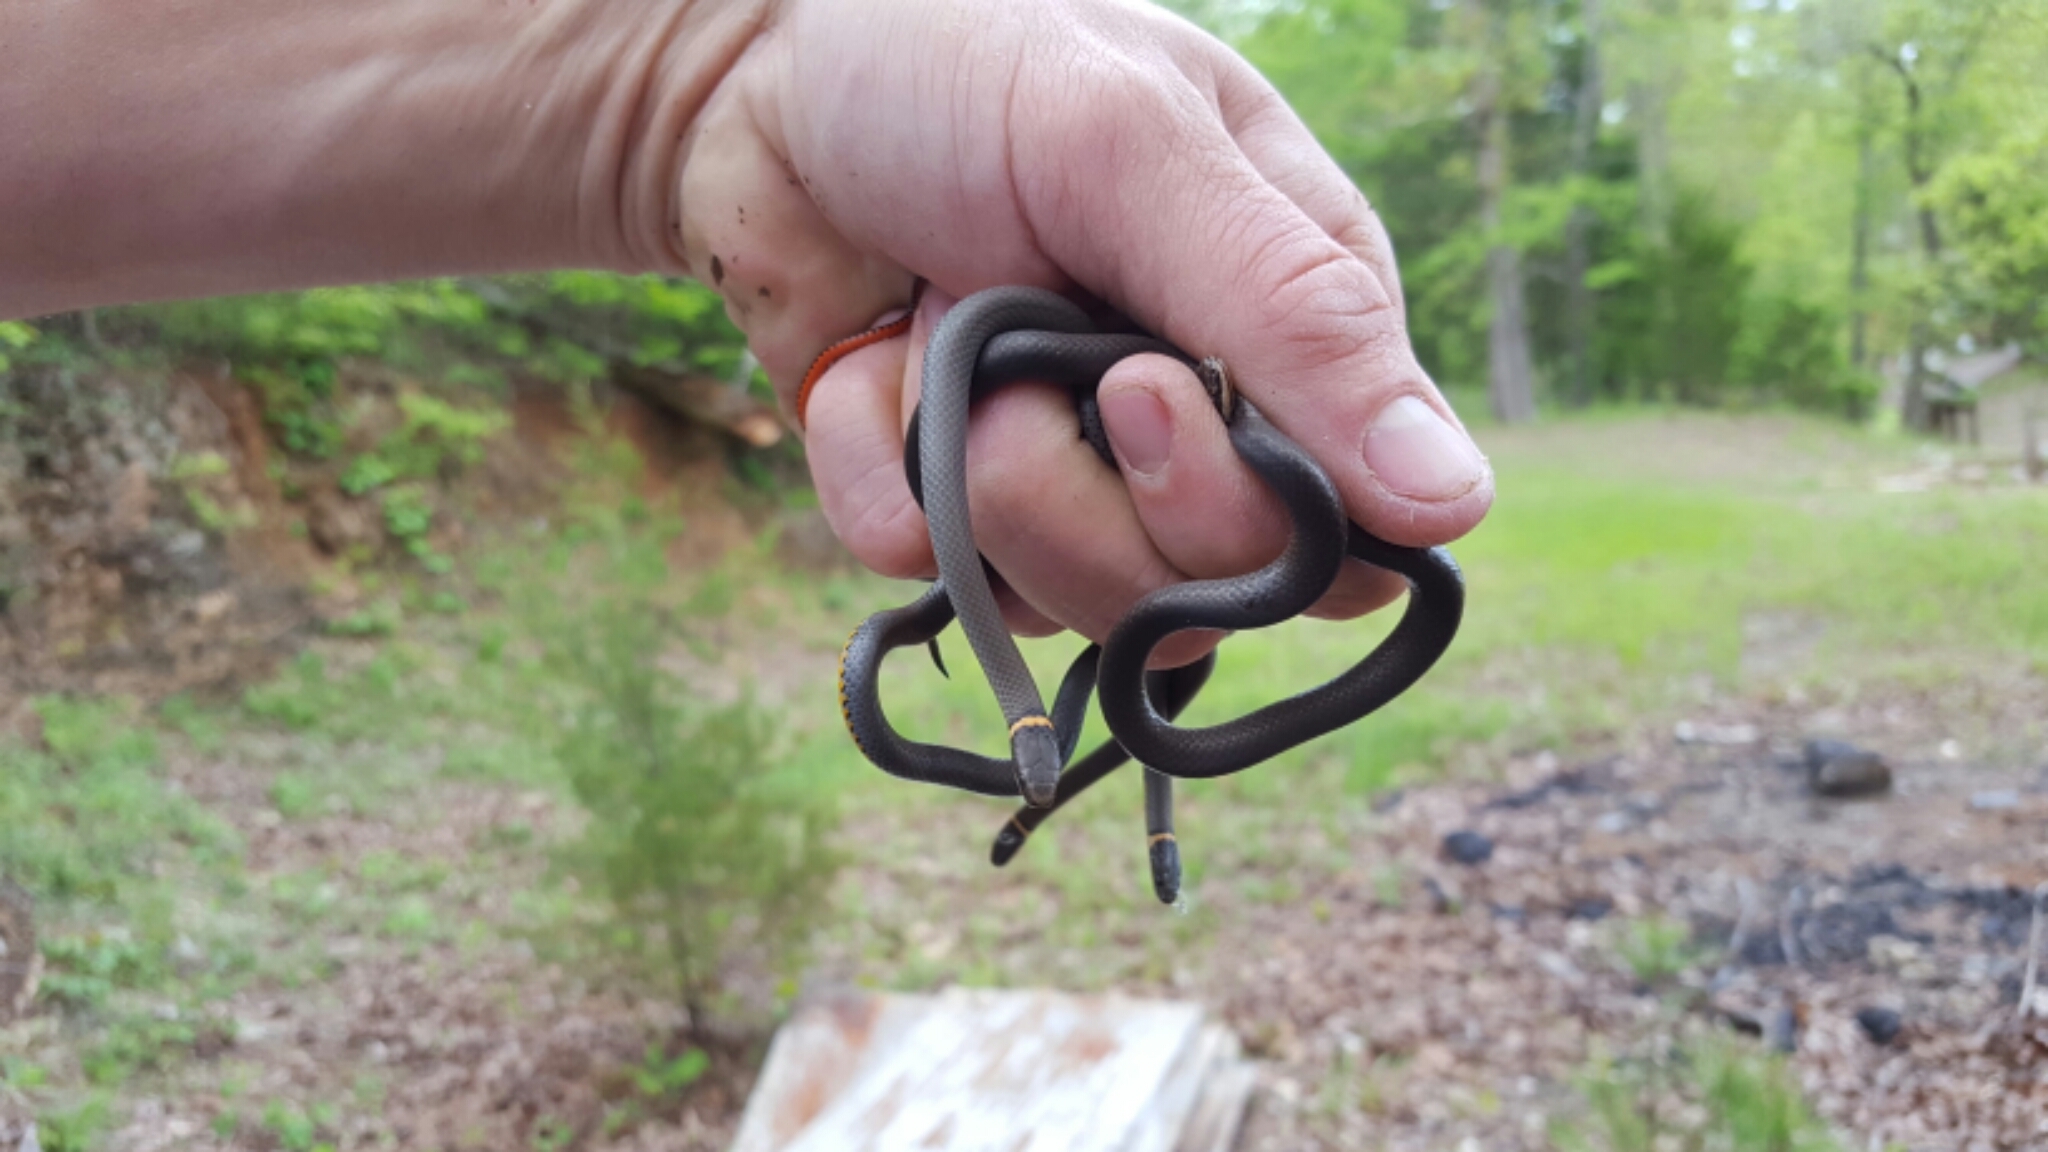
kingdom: Animalia
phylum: Chordata
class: Squamata
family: Colubridae
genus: Diadophis
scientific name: Diadophis punctatus
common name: Ringneck snake
